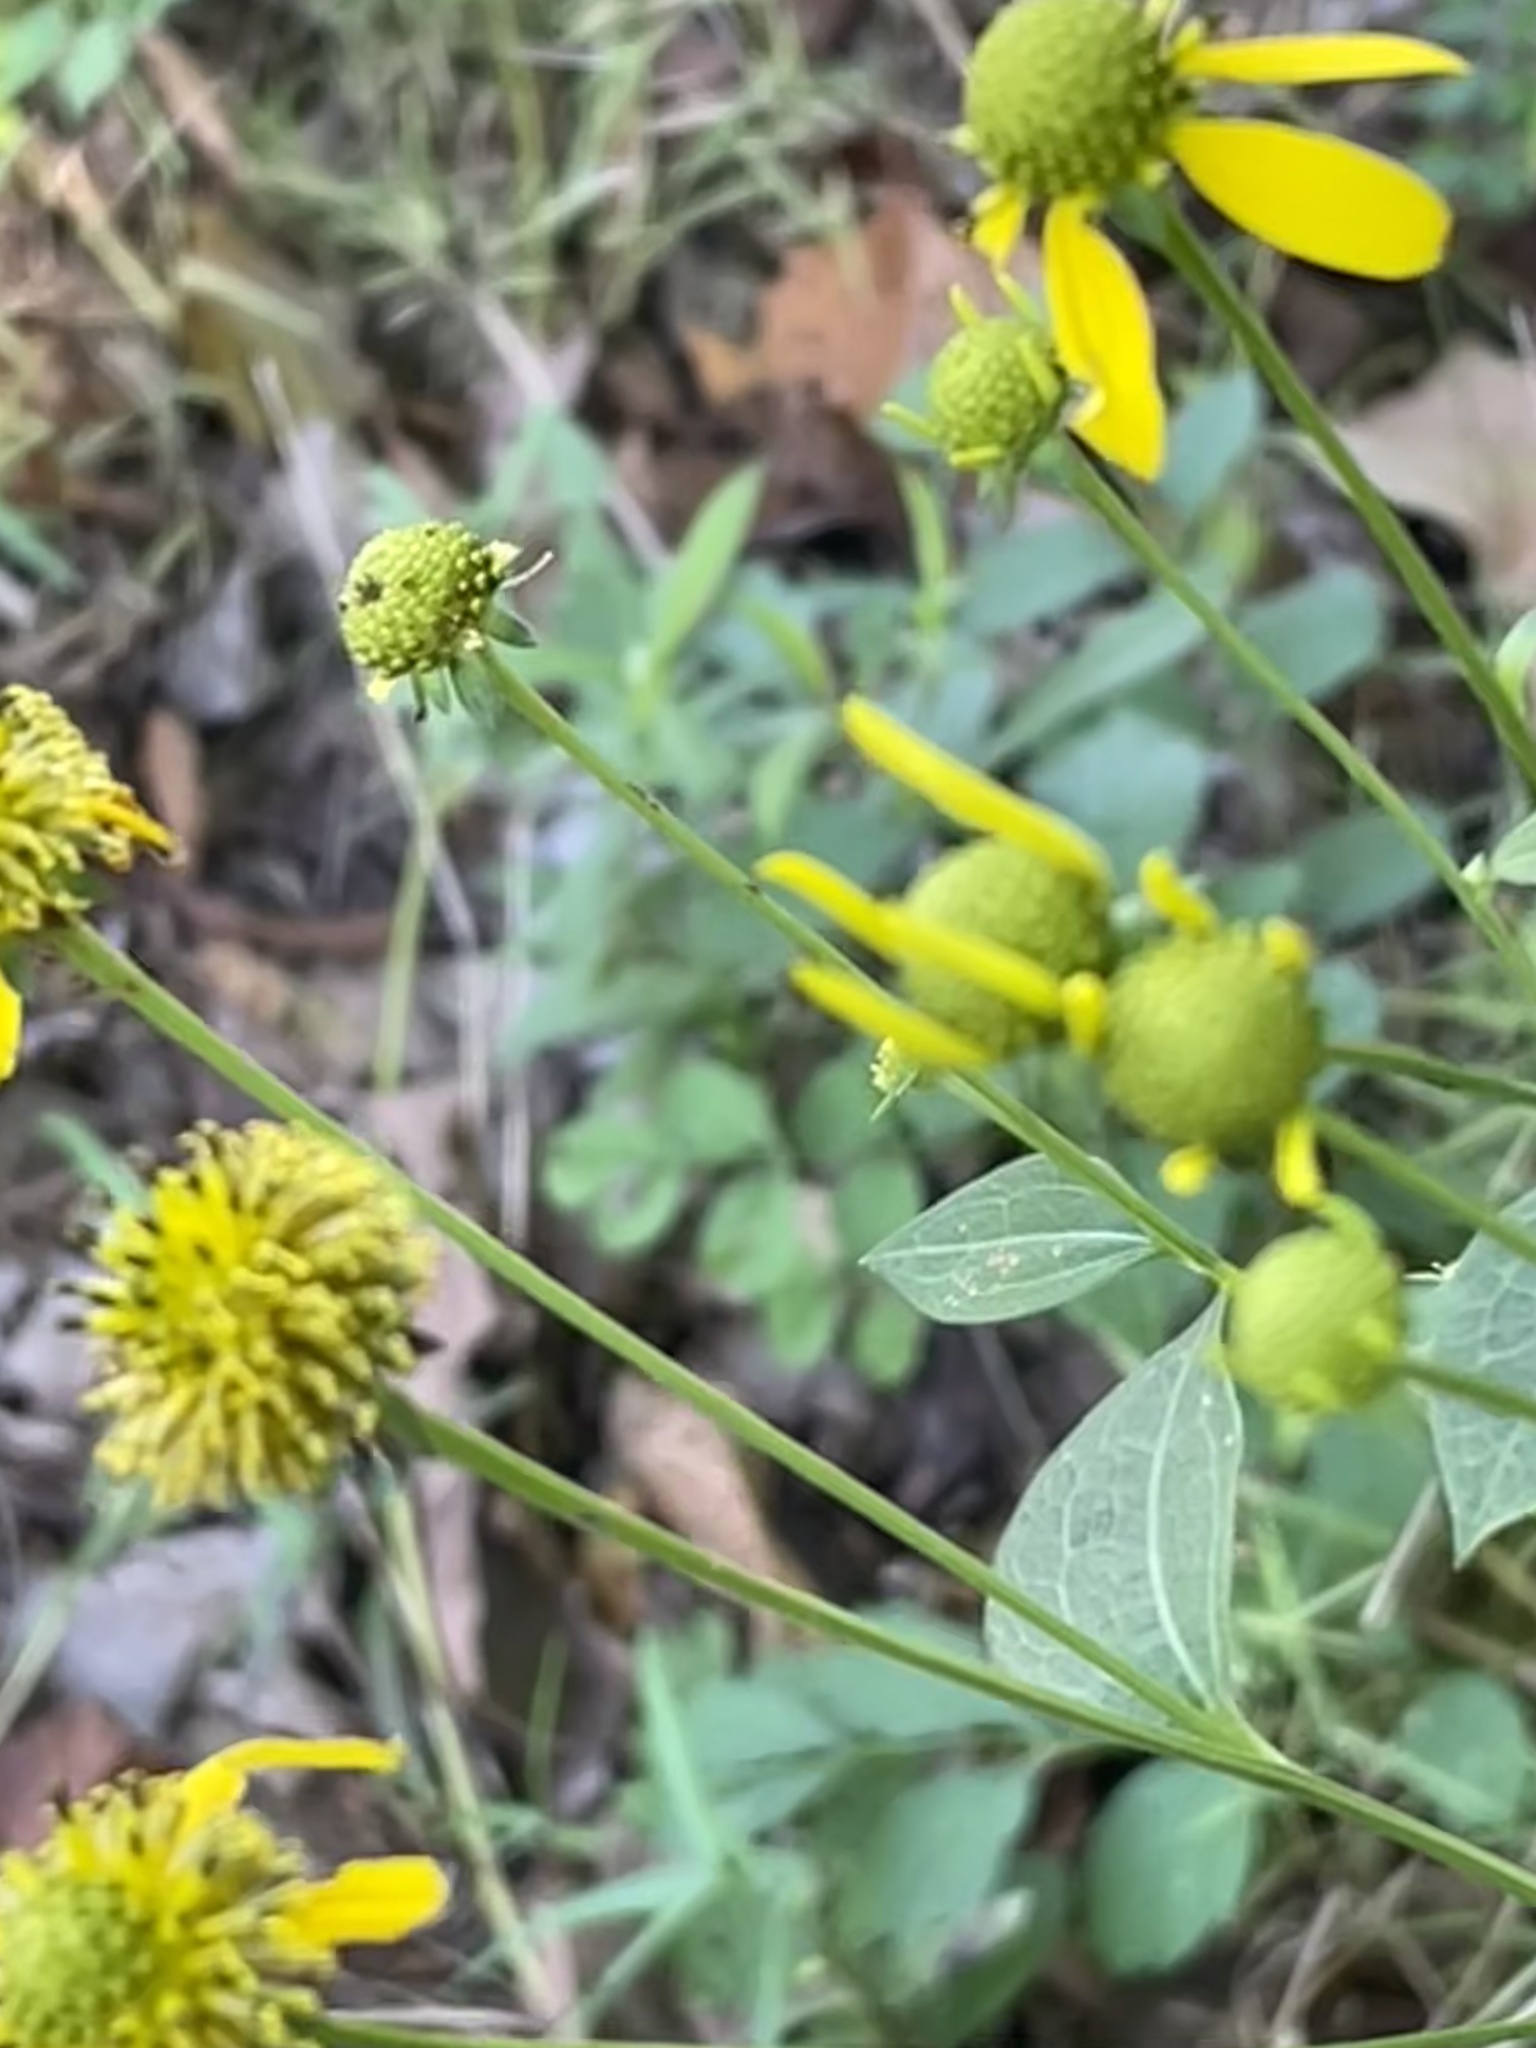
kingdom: Plantae
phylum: Tracheophyta
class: Magnoliopsida
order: Asterales
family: Asteraceae
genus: Rudbeckia
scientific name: Rudbeckia laciniata
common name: Coneflower
